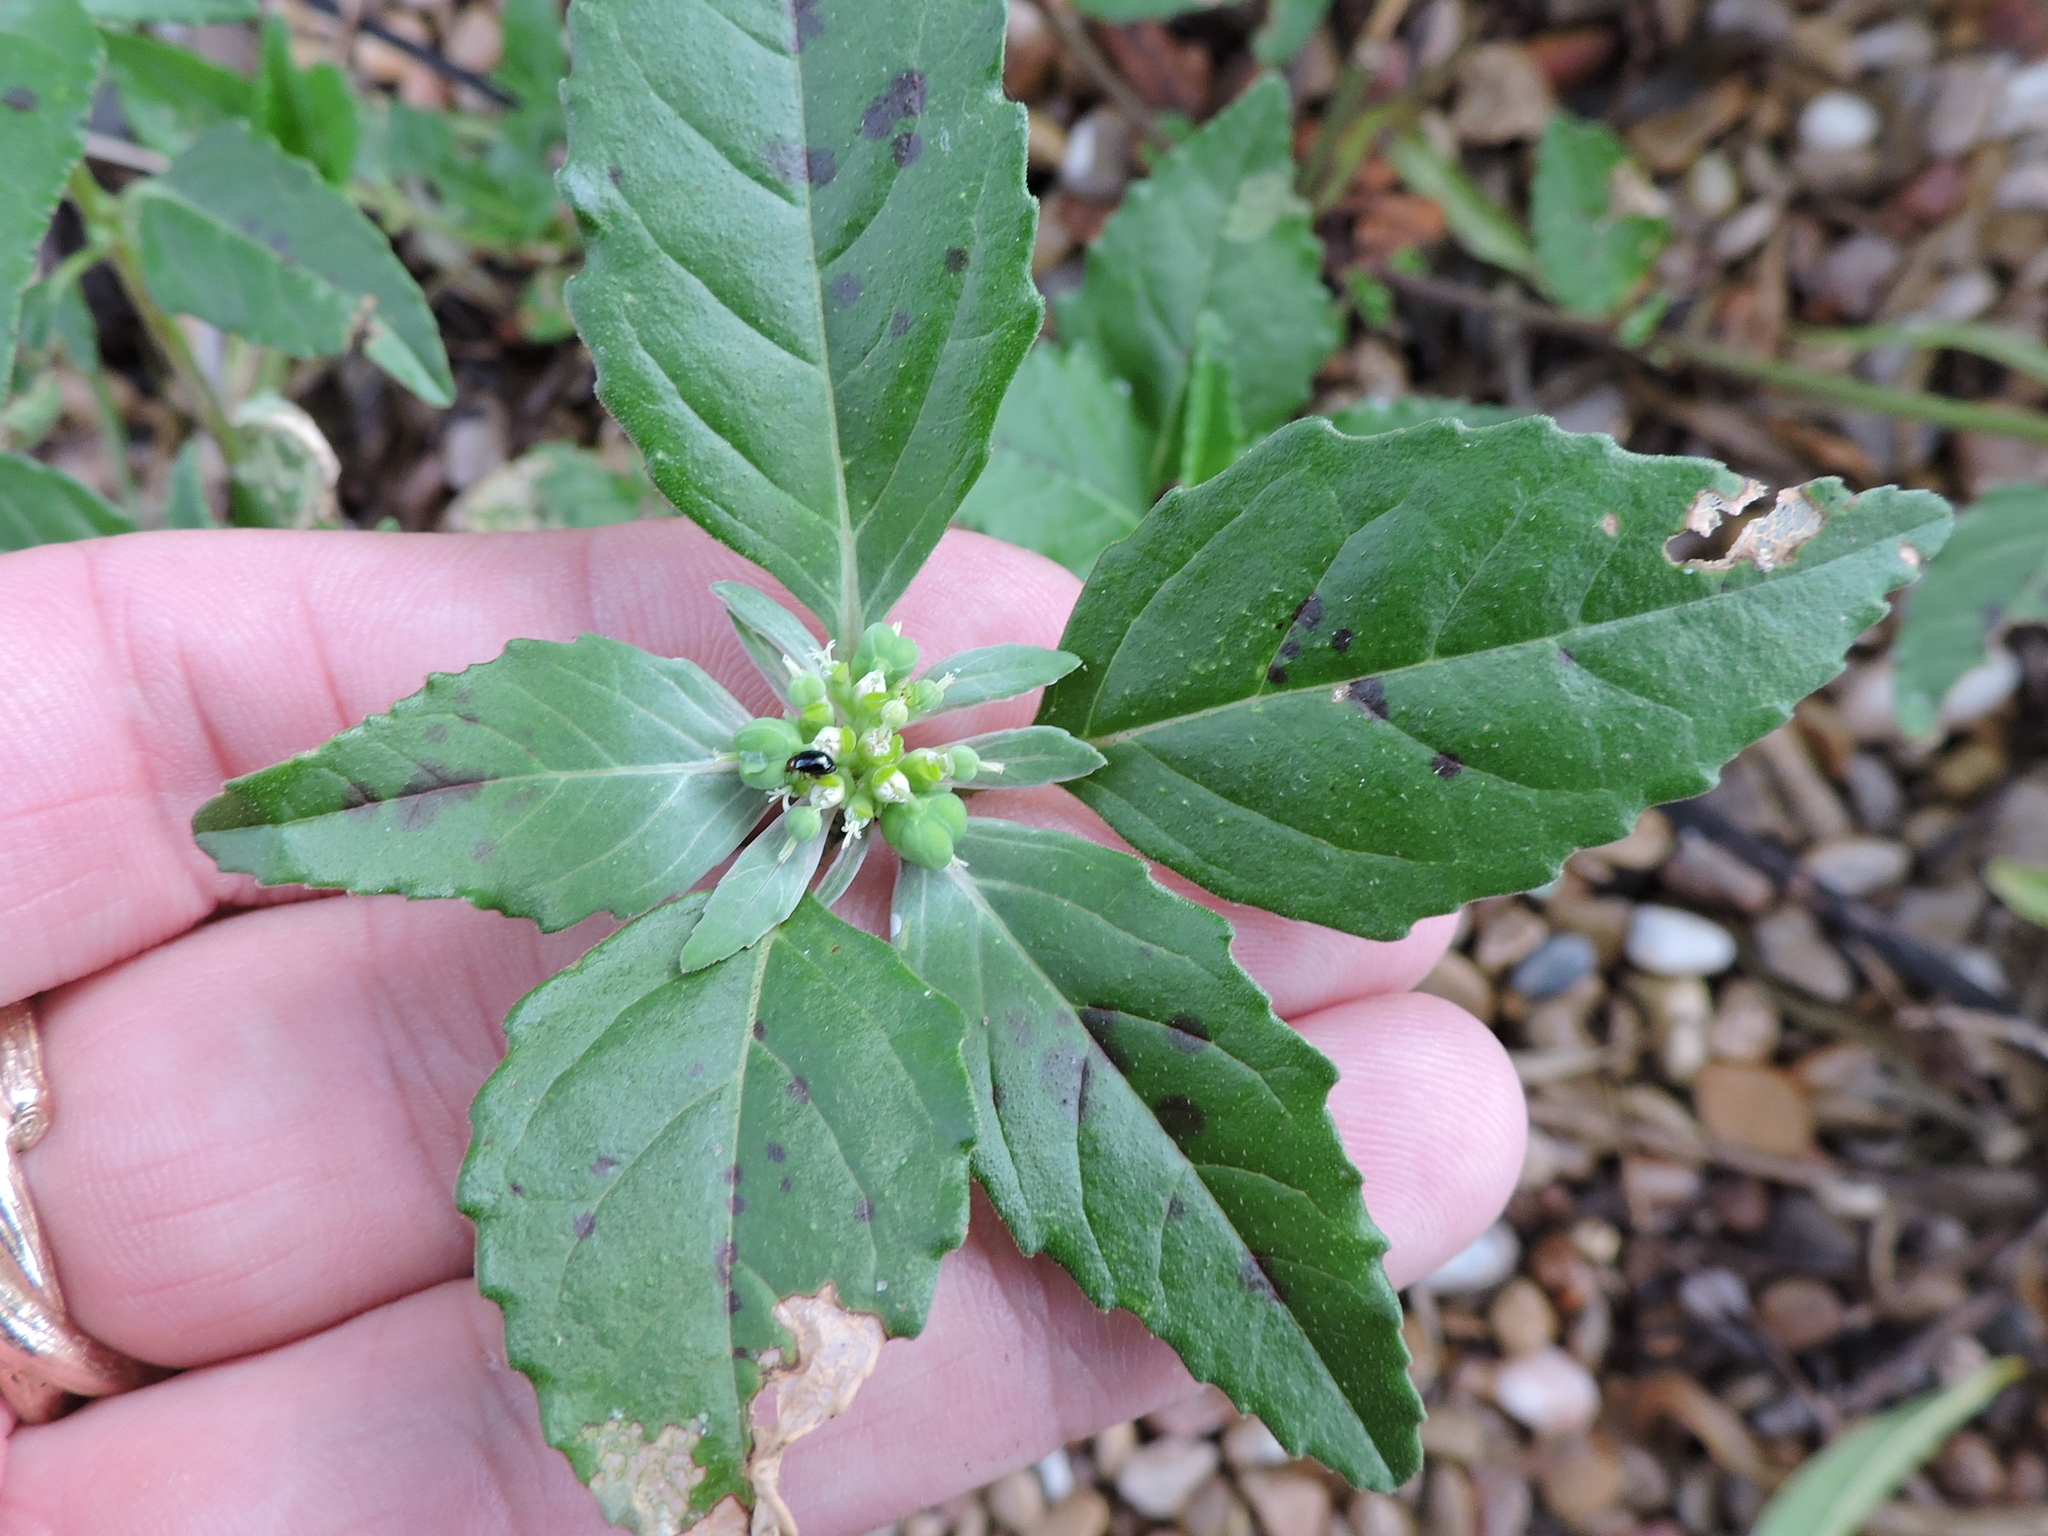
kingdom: Plantae
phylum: Tracheophyta
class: Magnoliopsida
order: Malpighiales
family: Euphorbiaceae
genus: Euphorbia
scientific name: Euphorbia dentata
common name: Dentate spurge
